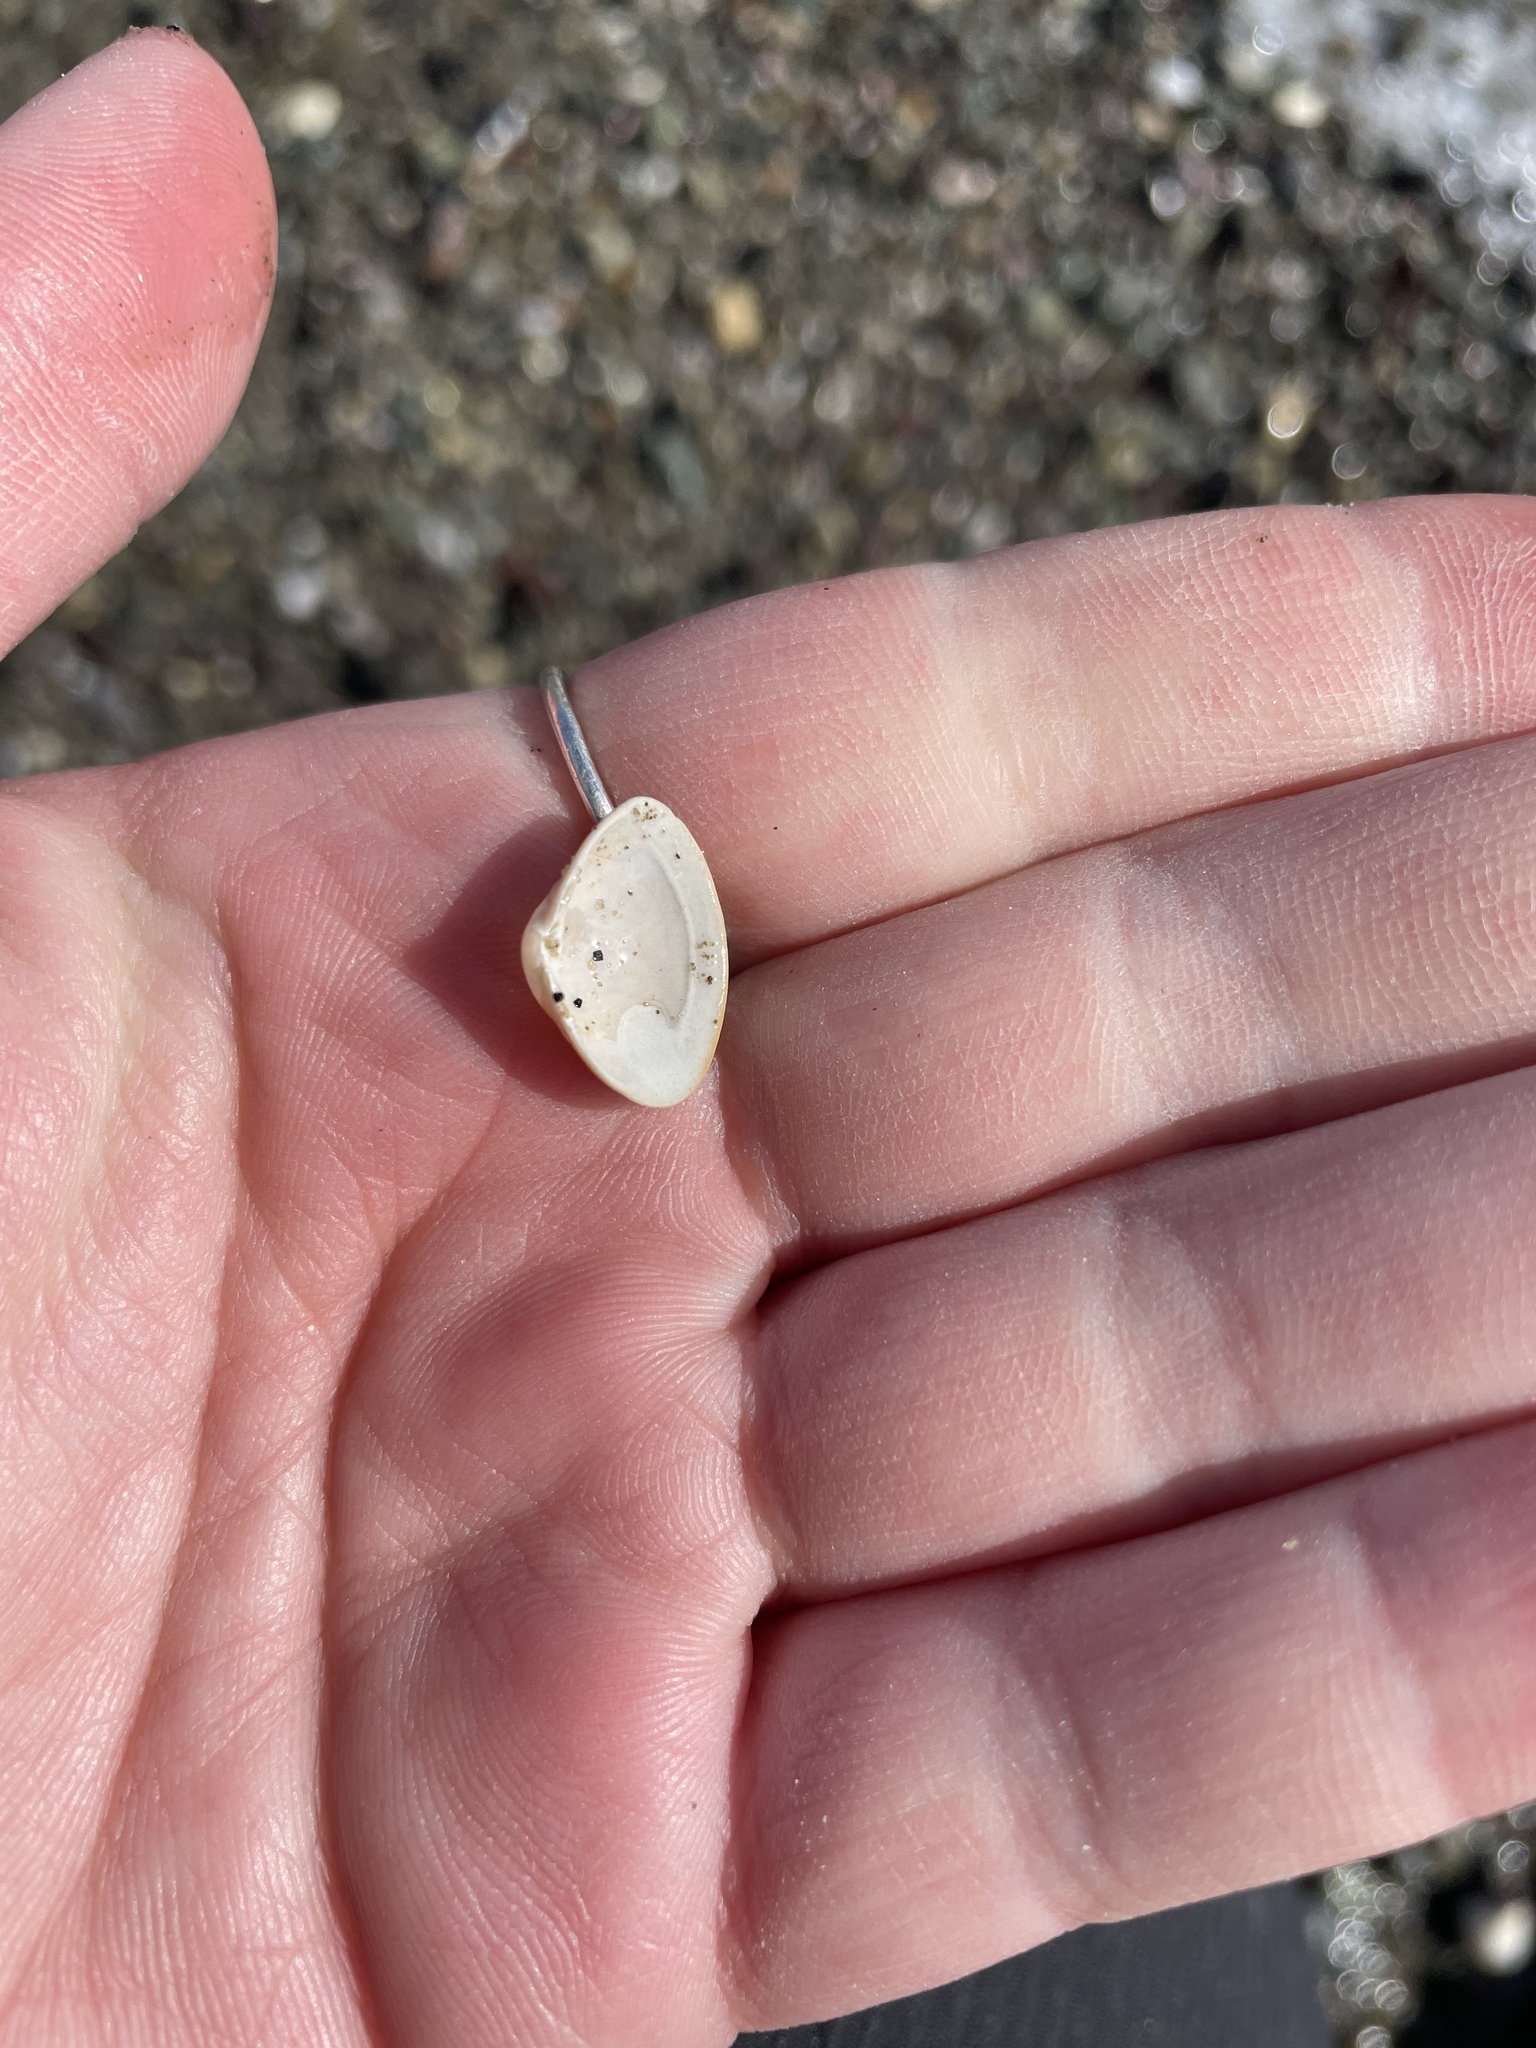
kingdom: Animalia
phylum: Mollusca
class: Bivalvia
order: Venerida
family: Mactridae
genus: Spisula
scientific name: Spisula solidissima
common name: Atlantic surf clam
